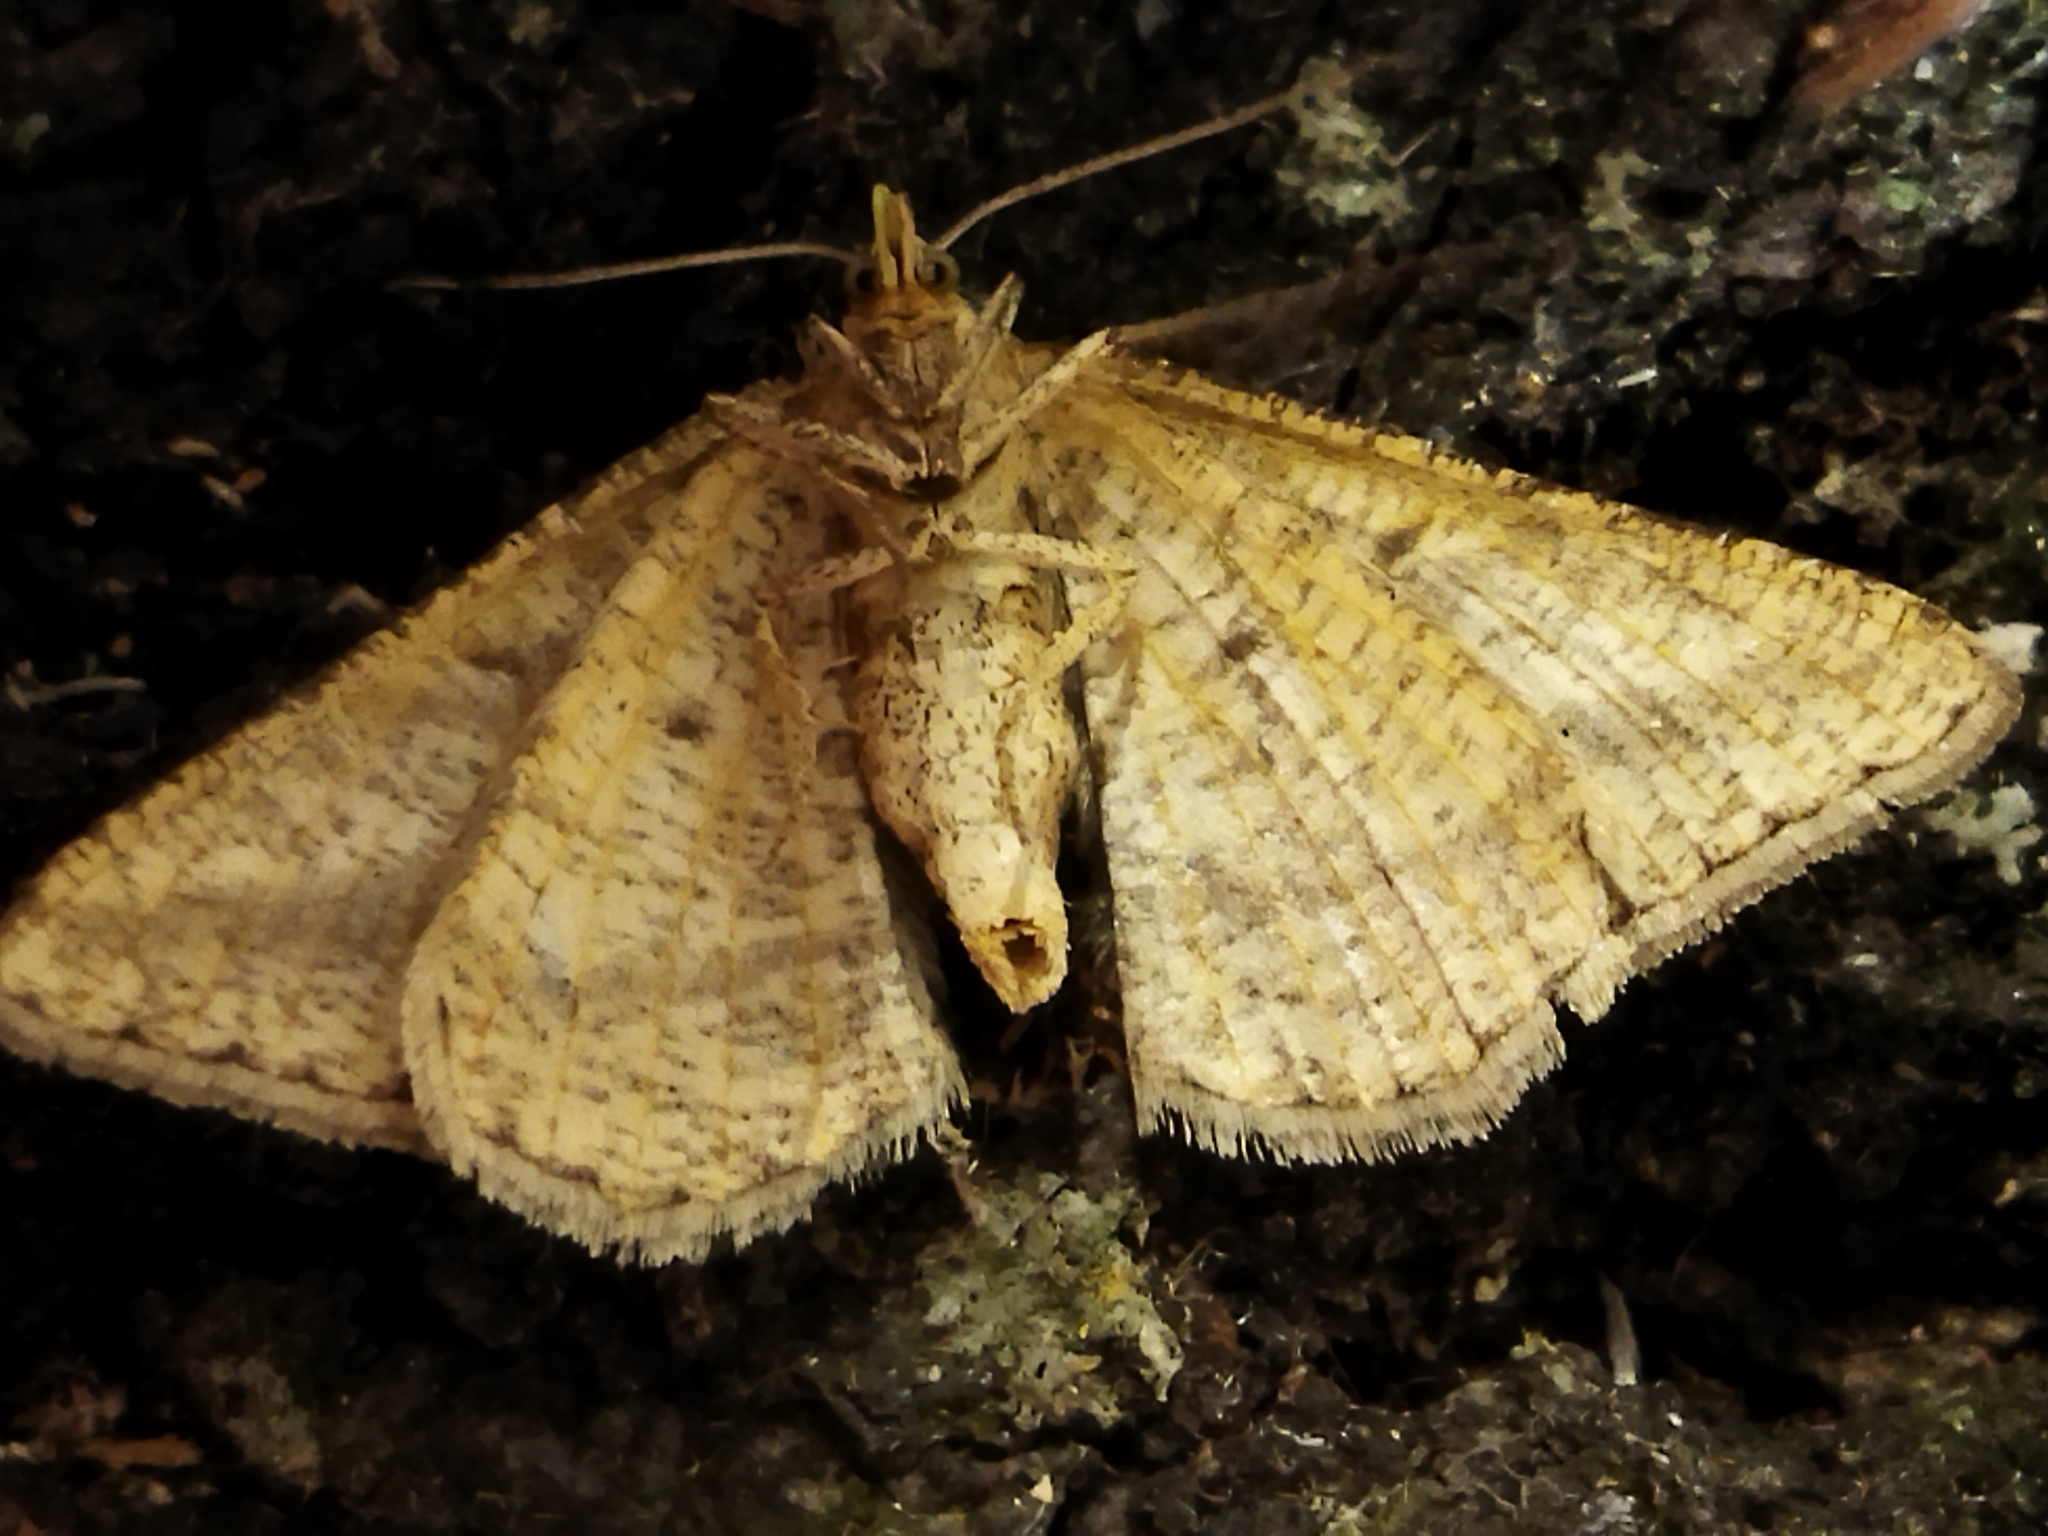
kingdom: Animalia
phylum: Arthropoda
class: Insecta
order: Lepidoptera
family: Geometridae
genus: Tephrina
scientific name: Tephrina arenacearia
